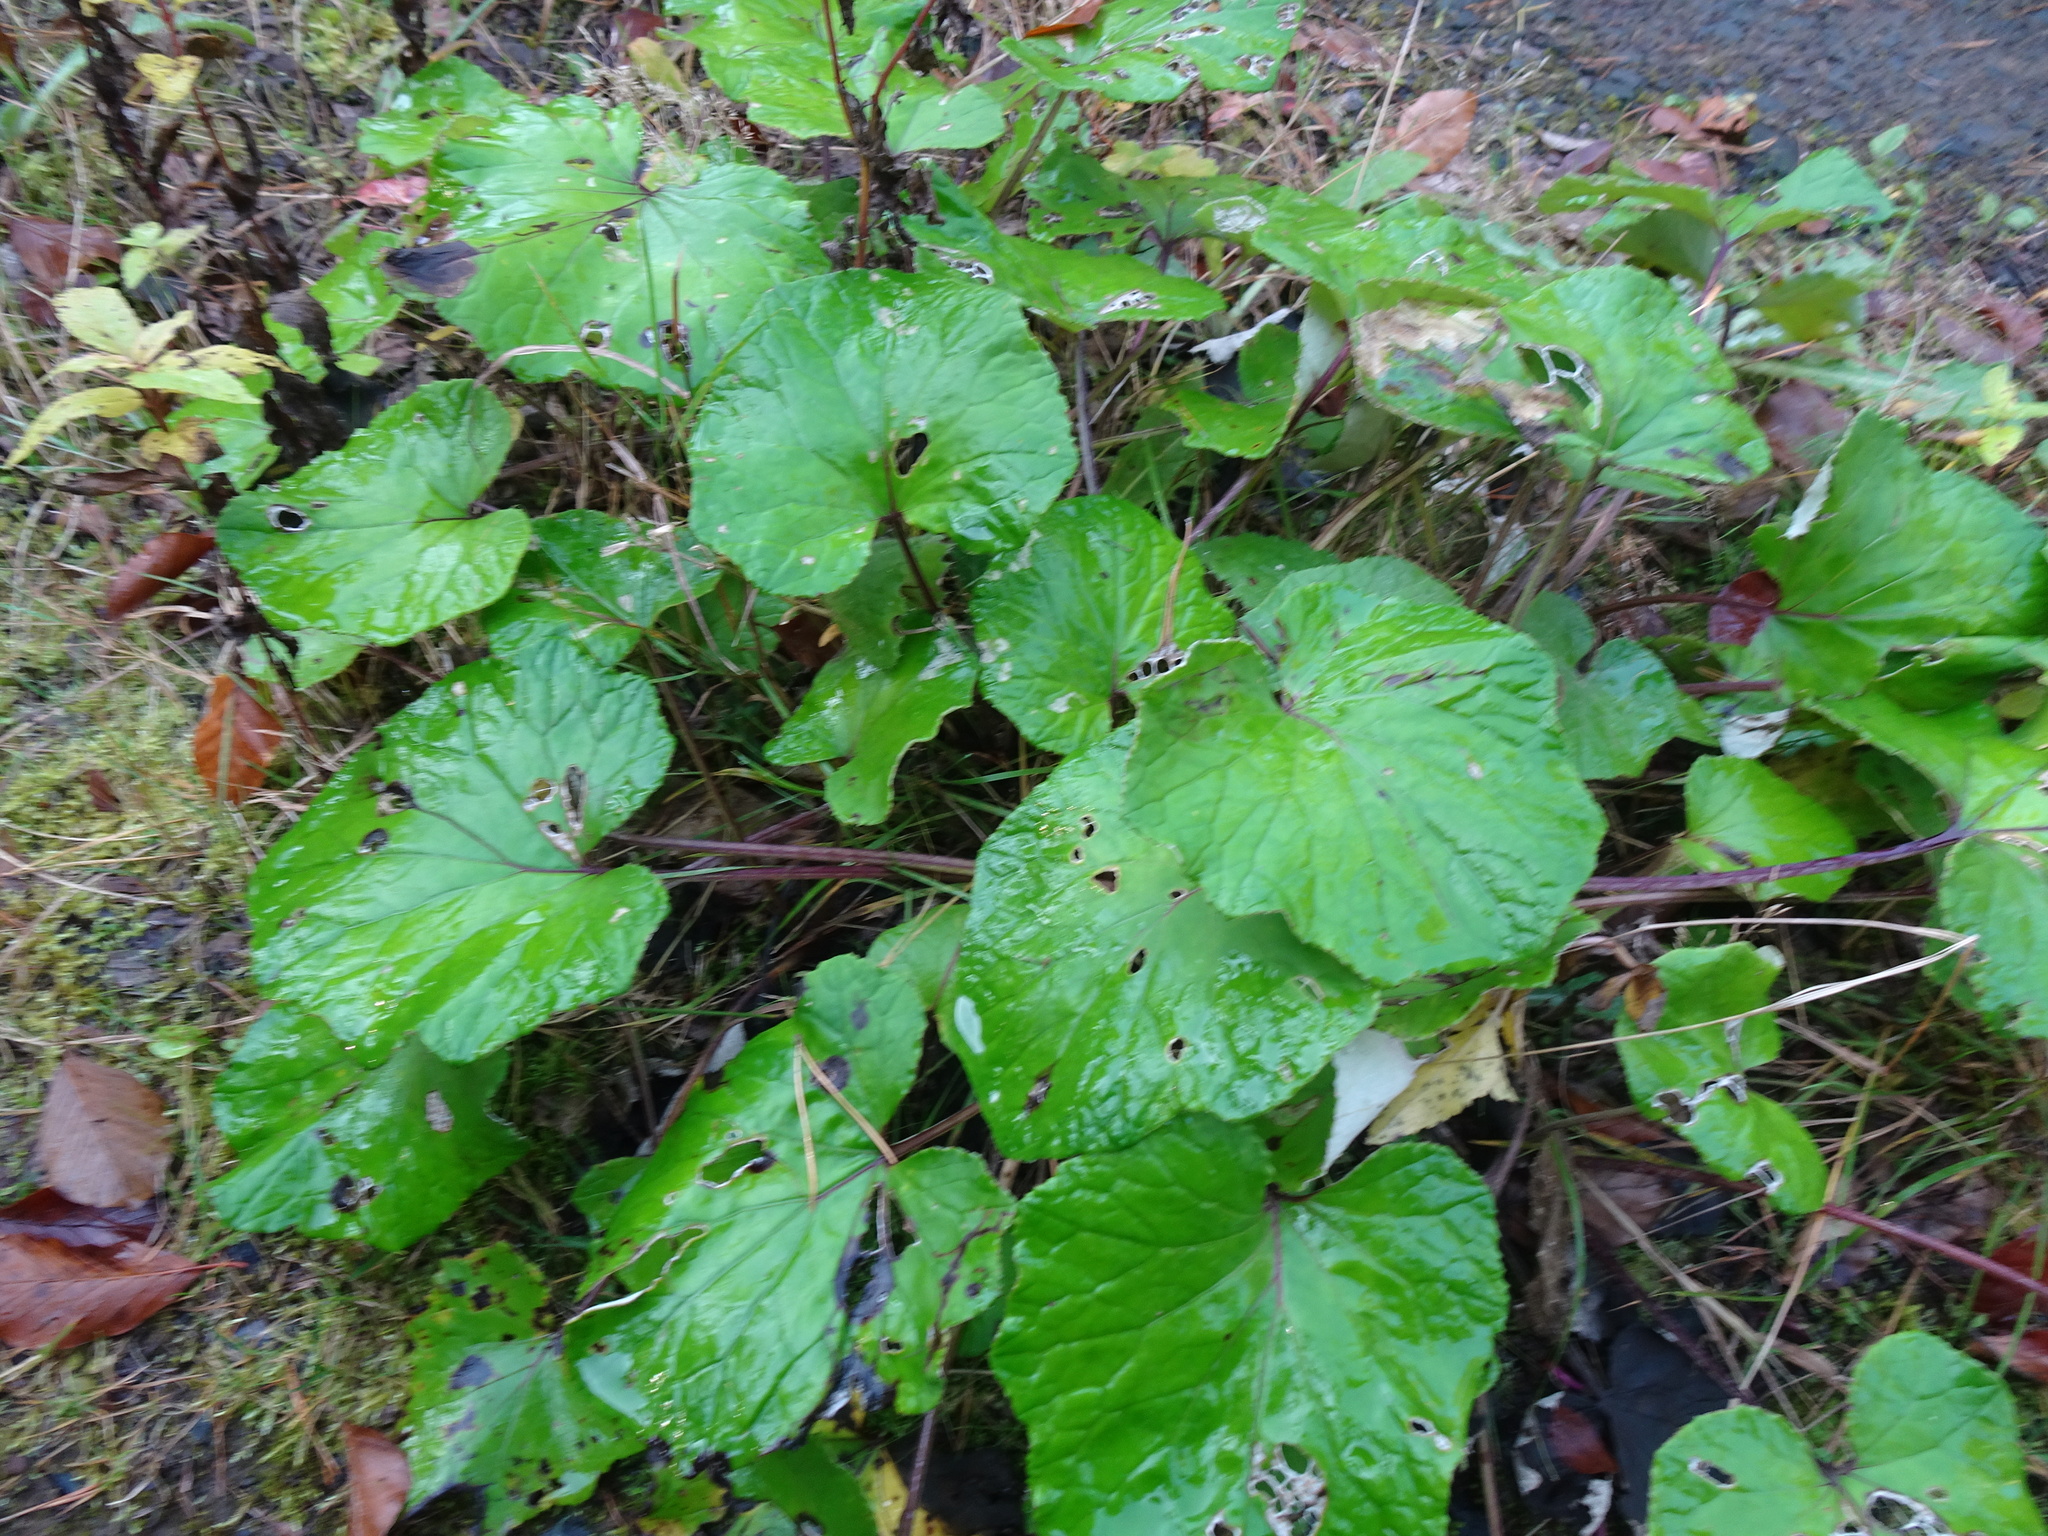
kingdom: Plantae
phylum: Tracheophyta
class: Magnoliopsida
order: Asterales
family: Asteraceae
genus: Tussilago
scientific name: Tussilago farfara
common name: Coltsfoot
